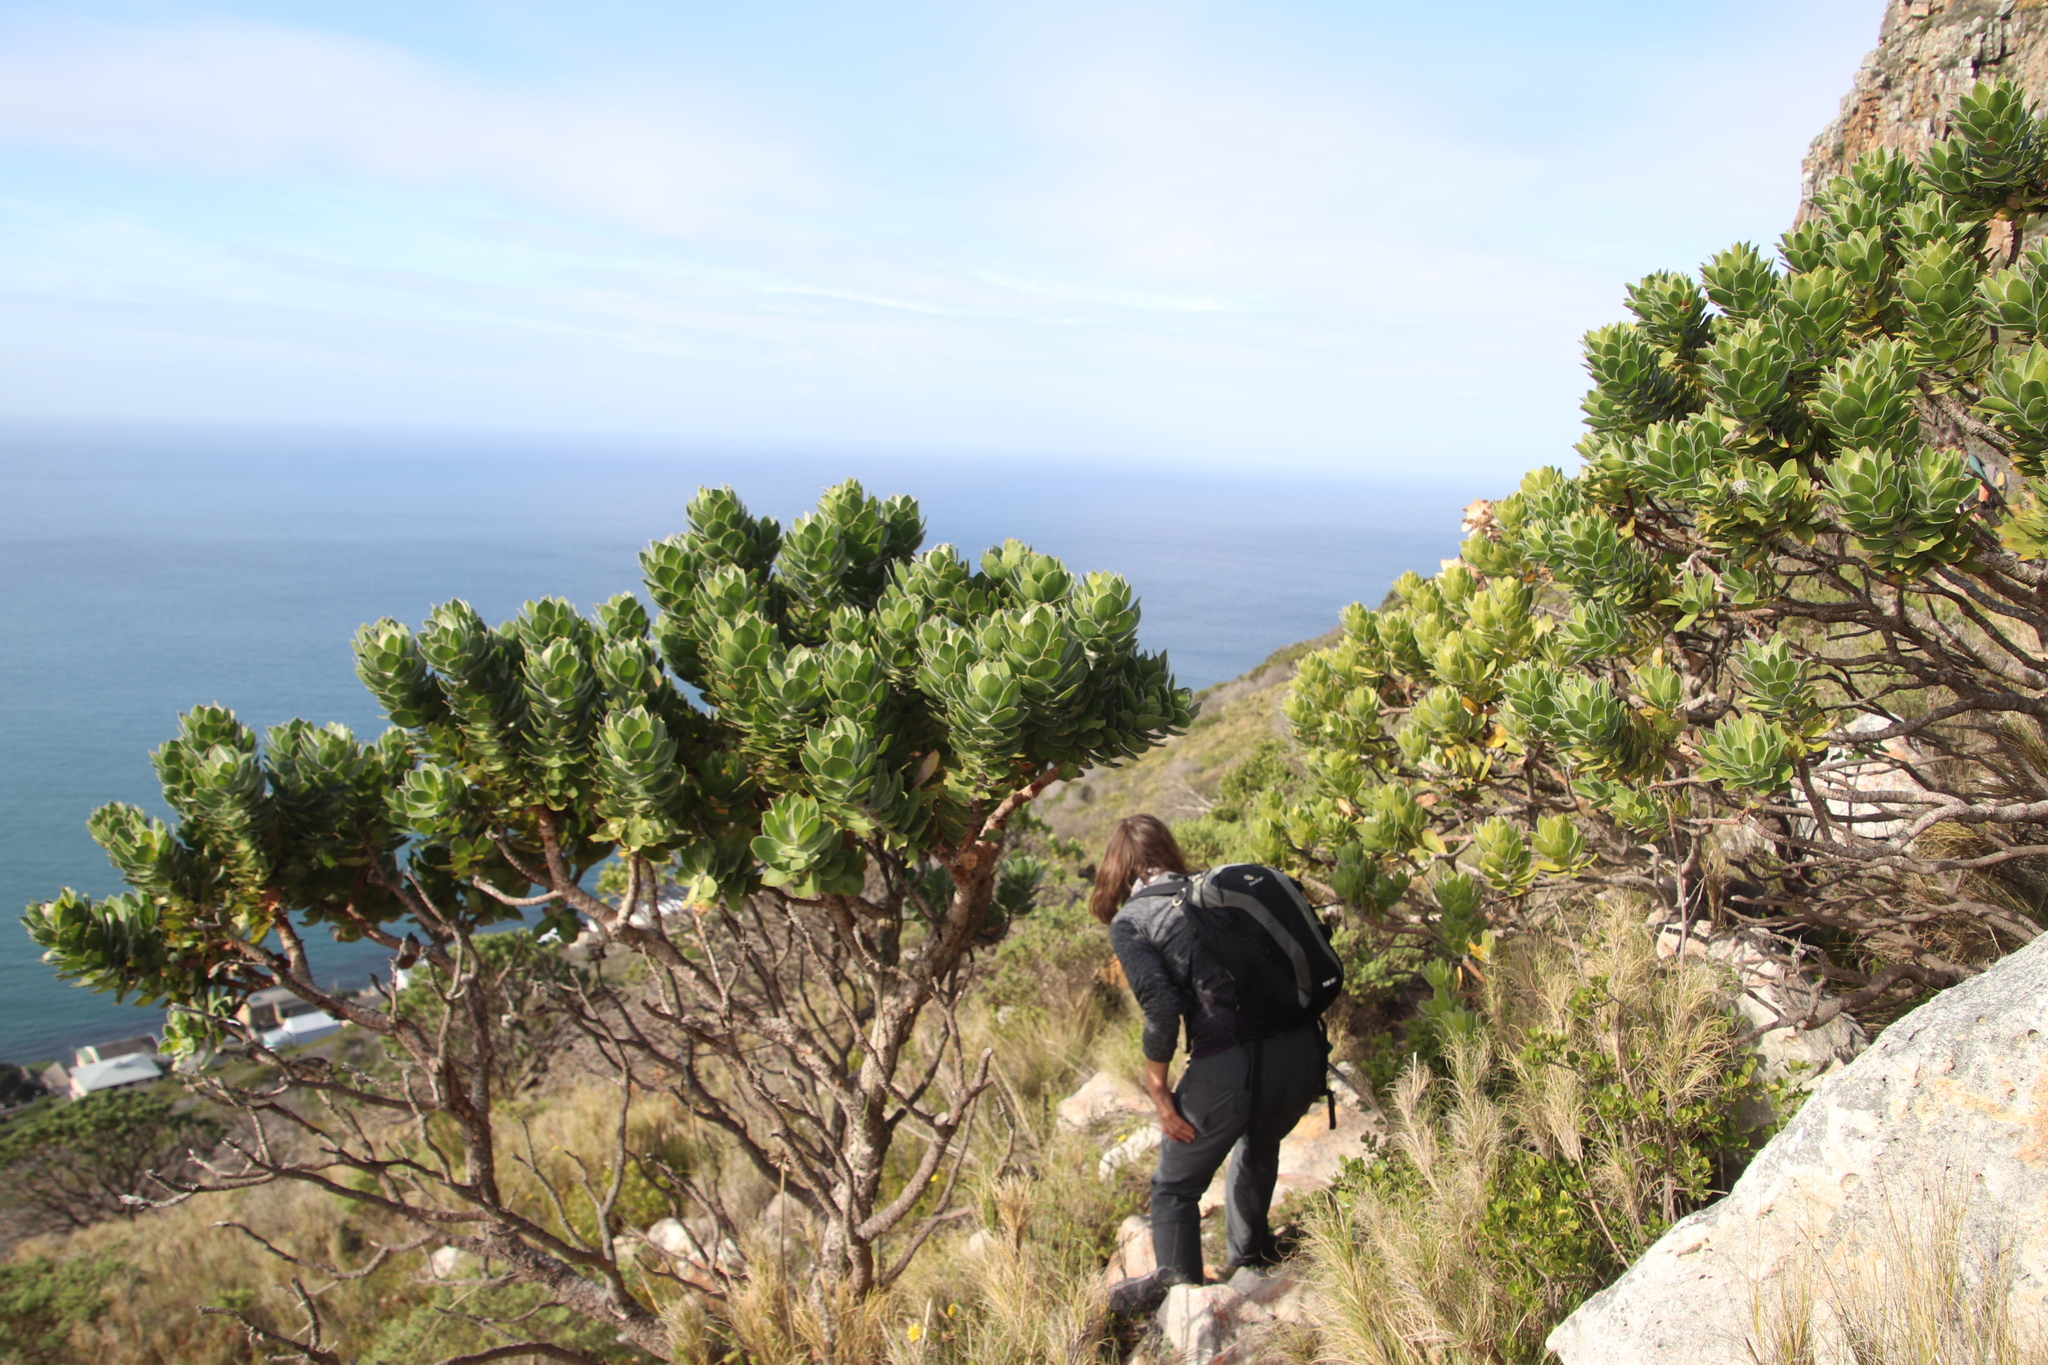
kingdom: Plantae
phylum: Tracheophyta
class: Magnoliopsida
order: Proteales
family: Proteaceae
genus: Leucospermum
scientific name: Leucospermum conocarpodendron
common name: Tree pincushion
